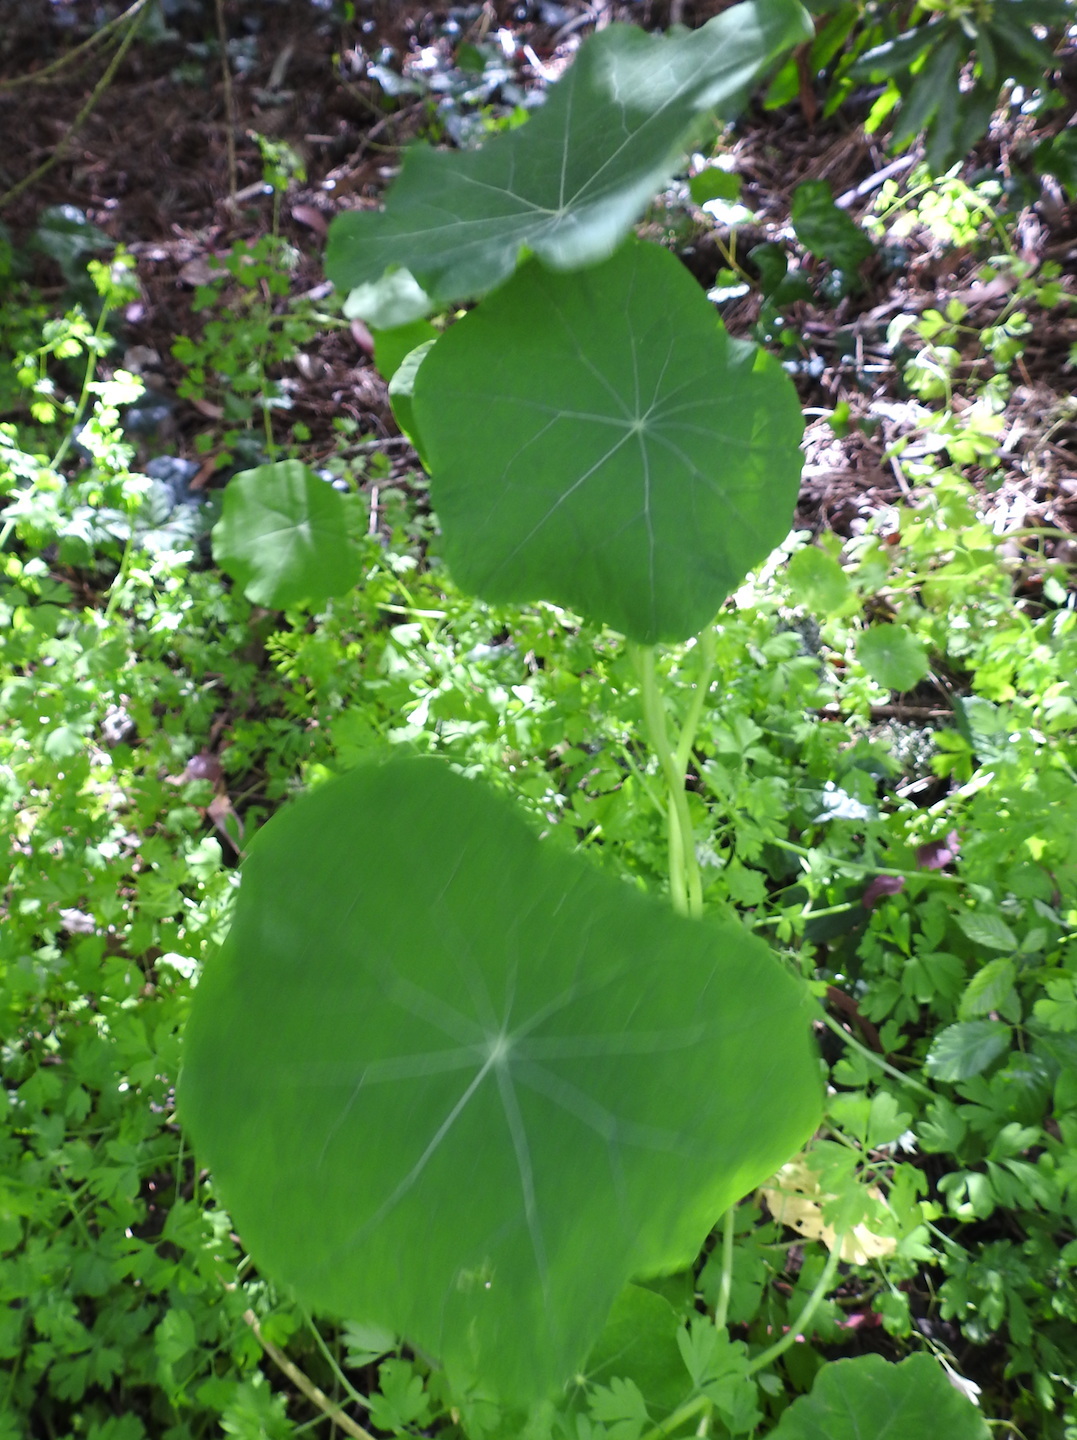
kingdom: Plantae
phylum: Tracheophyta
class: Magnoliopsida
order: Brassicales
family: Tropaeolaceae
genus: Tropaeolum
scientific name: Tropaeolum majus
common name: Nasturtium
